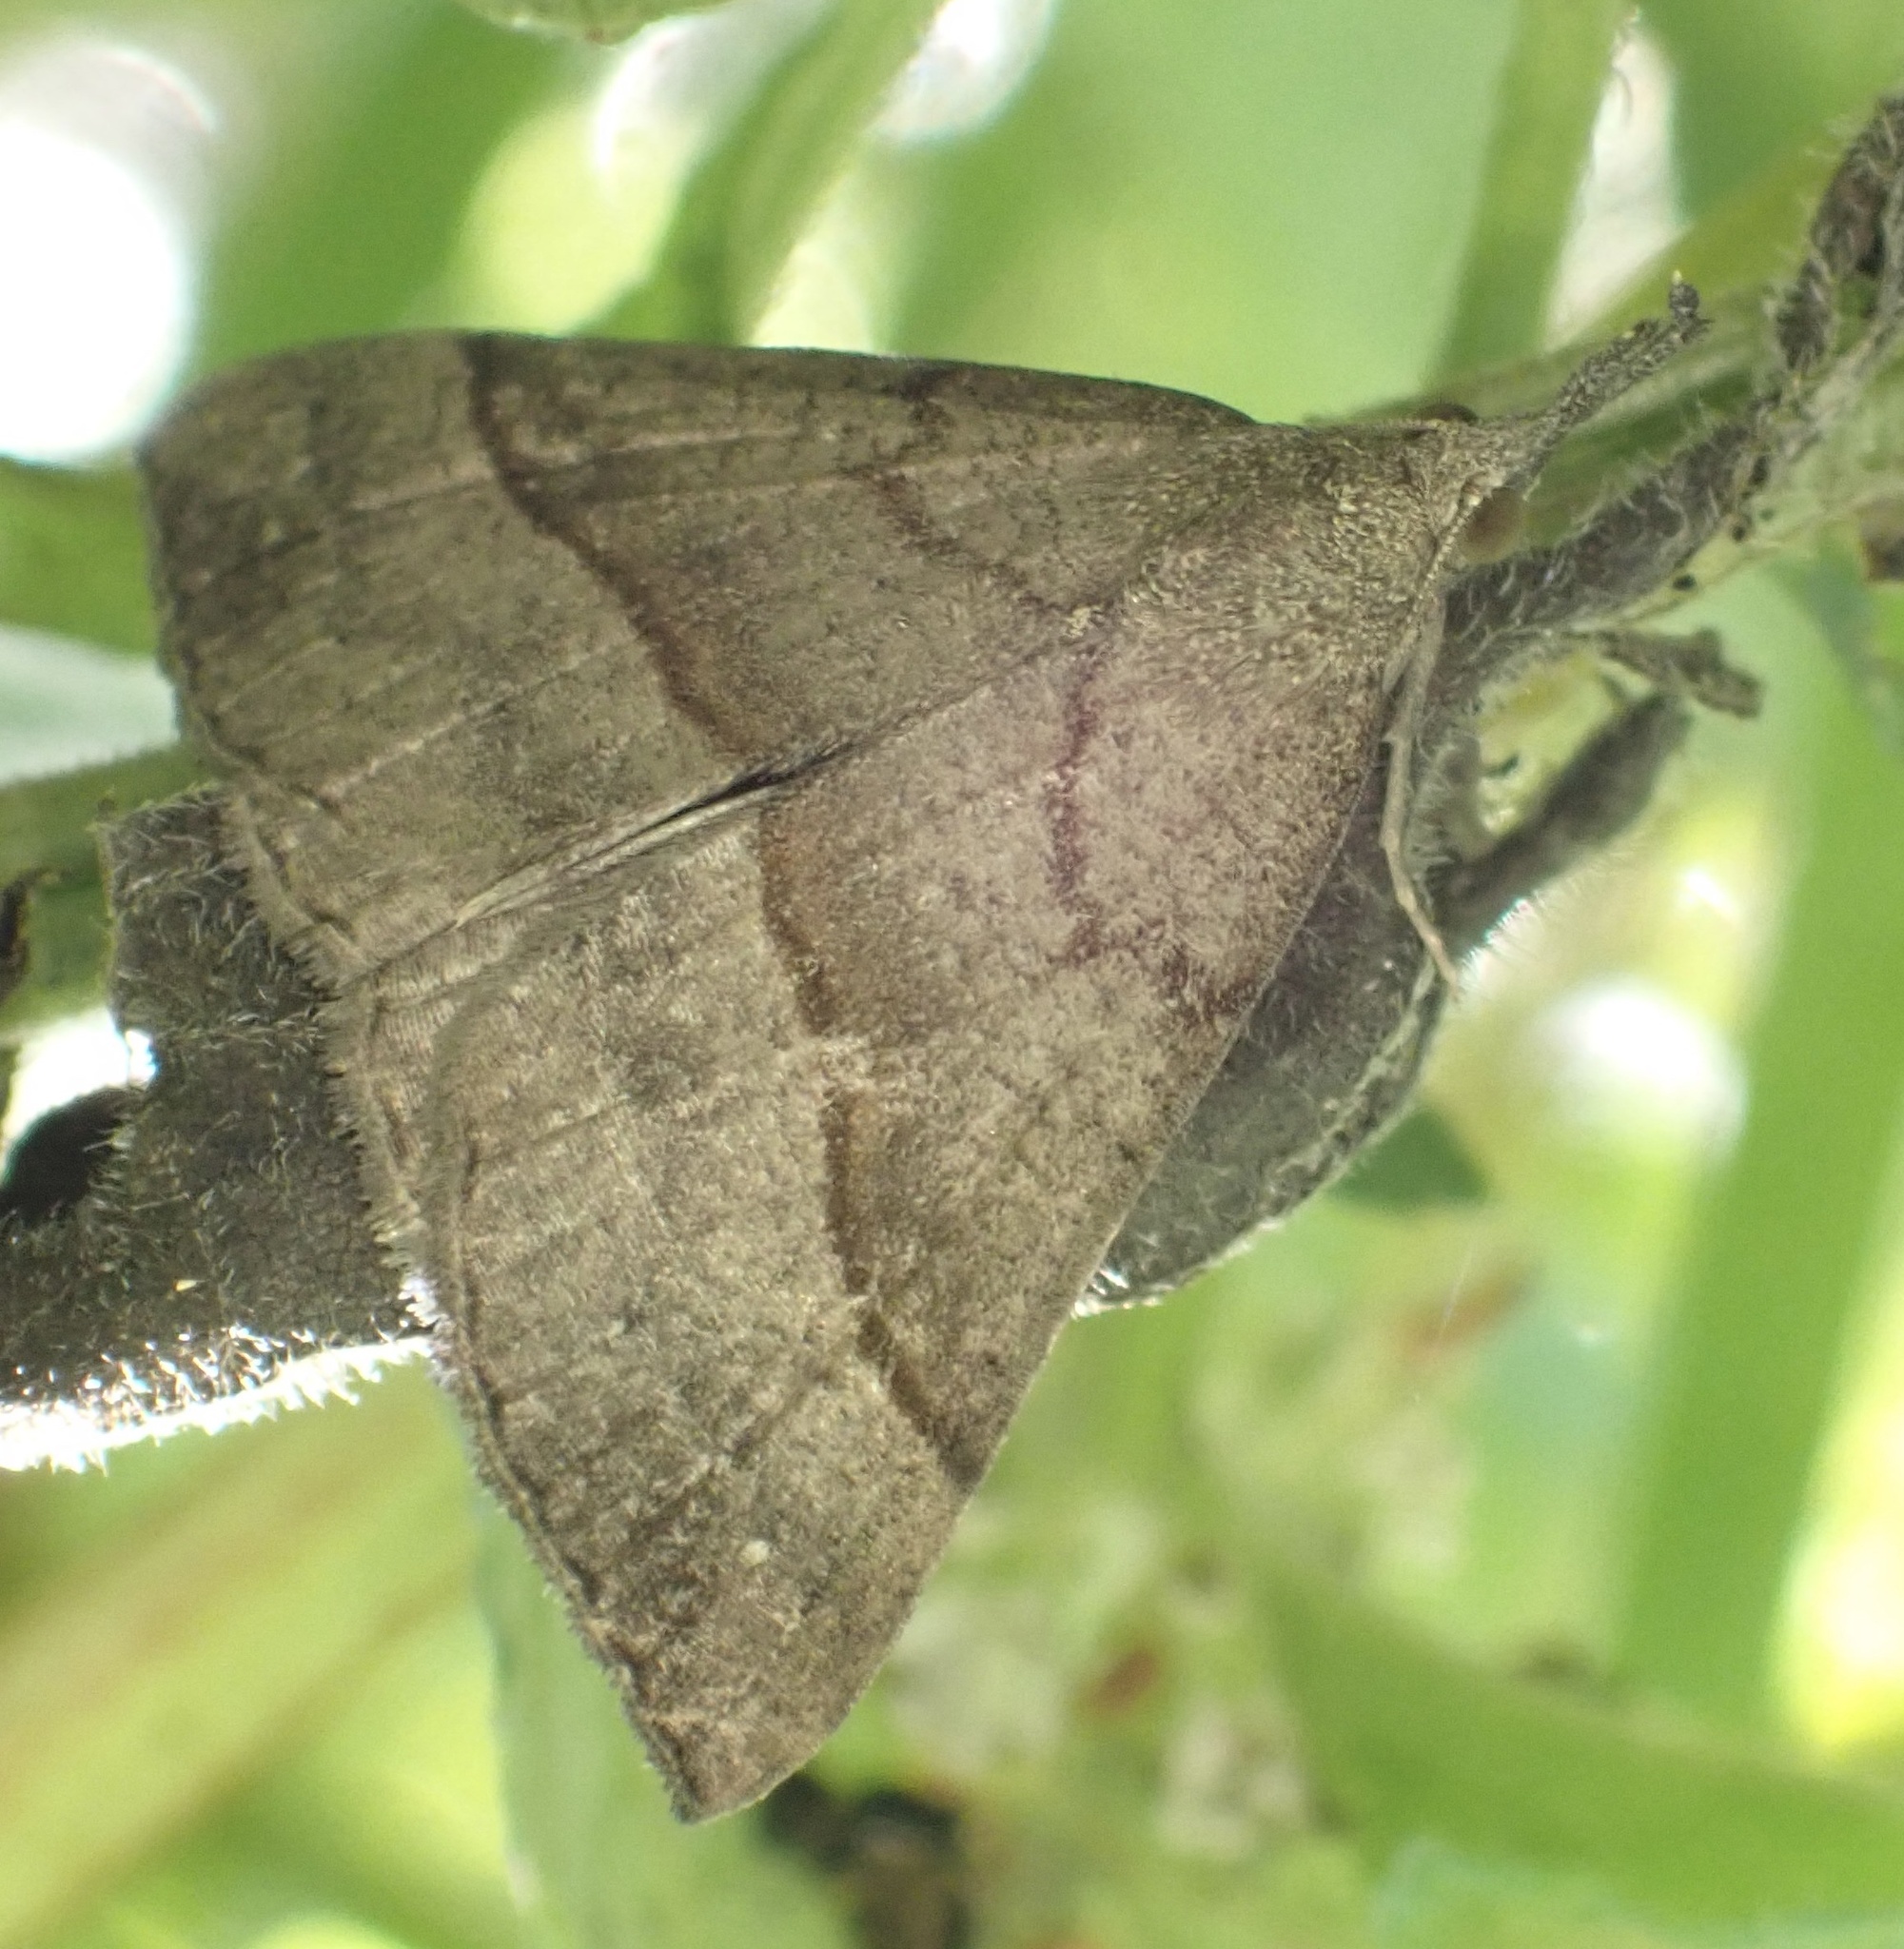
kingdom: Animalia
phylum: Arthropoda
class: Insecta
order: Lepidoptera
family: Erebidae
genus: Hypena
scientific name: Hypena proboscidalis
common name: Snout
